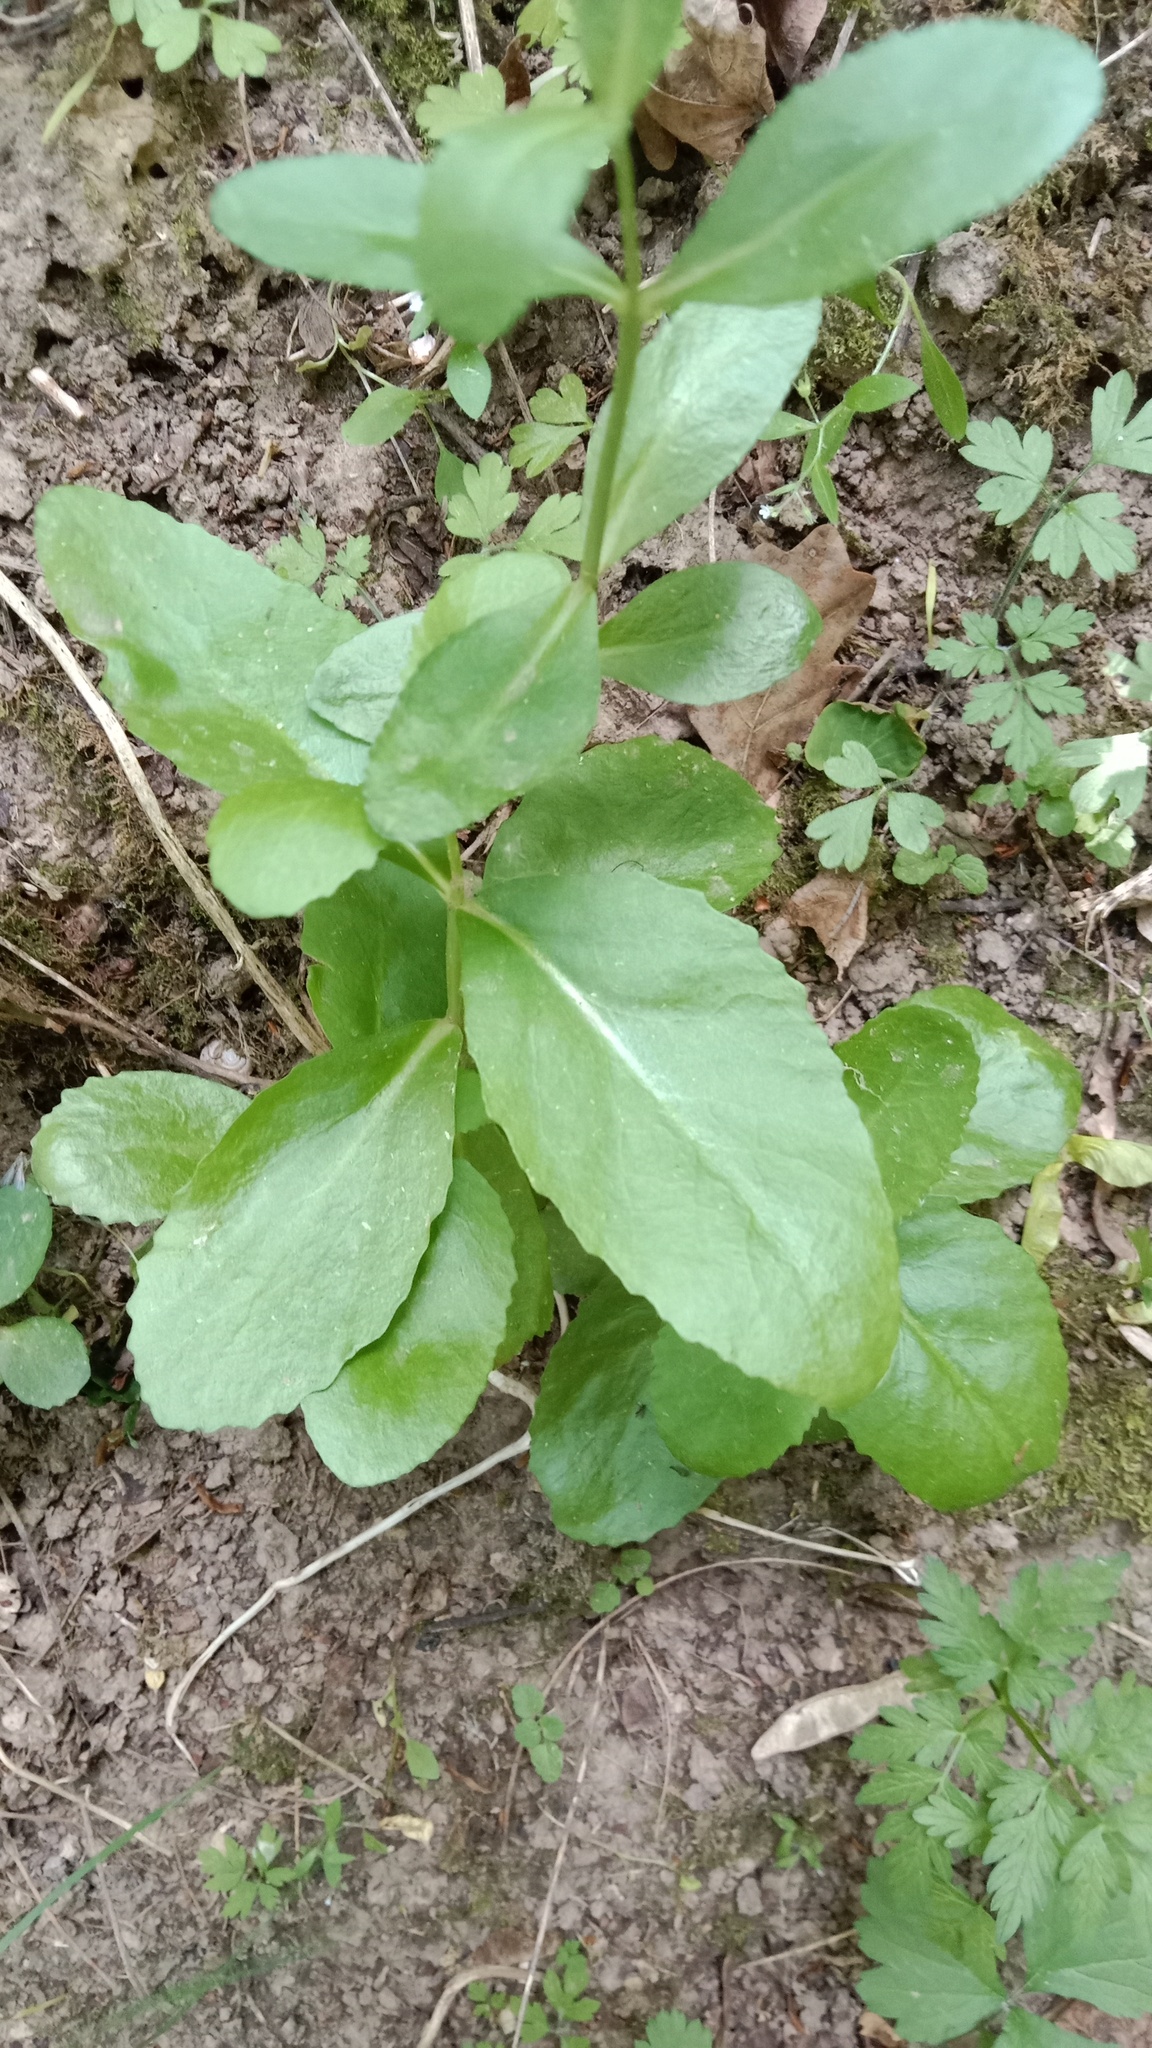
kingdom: Plantae
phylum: Tracheophyta
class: Magnoliopsida
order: Saxifragales
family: Crassulaceae
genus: Hylotelephium
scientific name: Hylotelephium maximum
